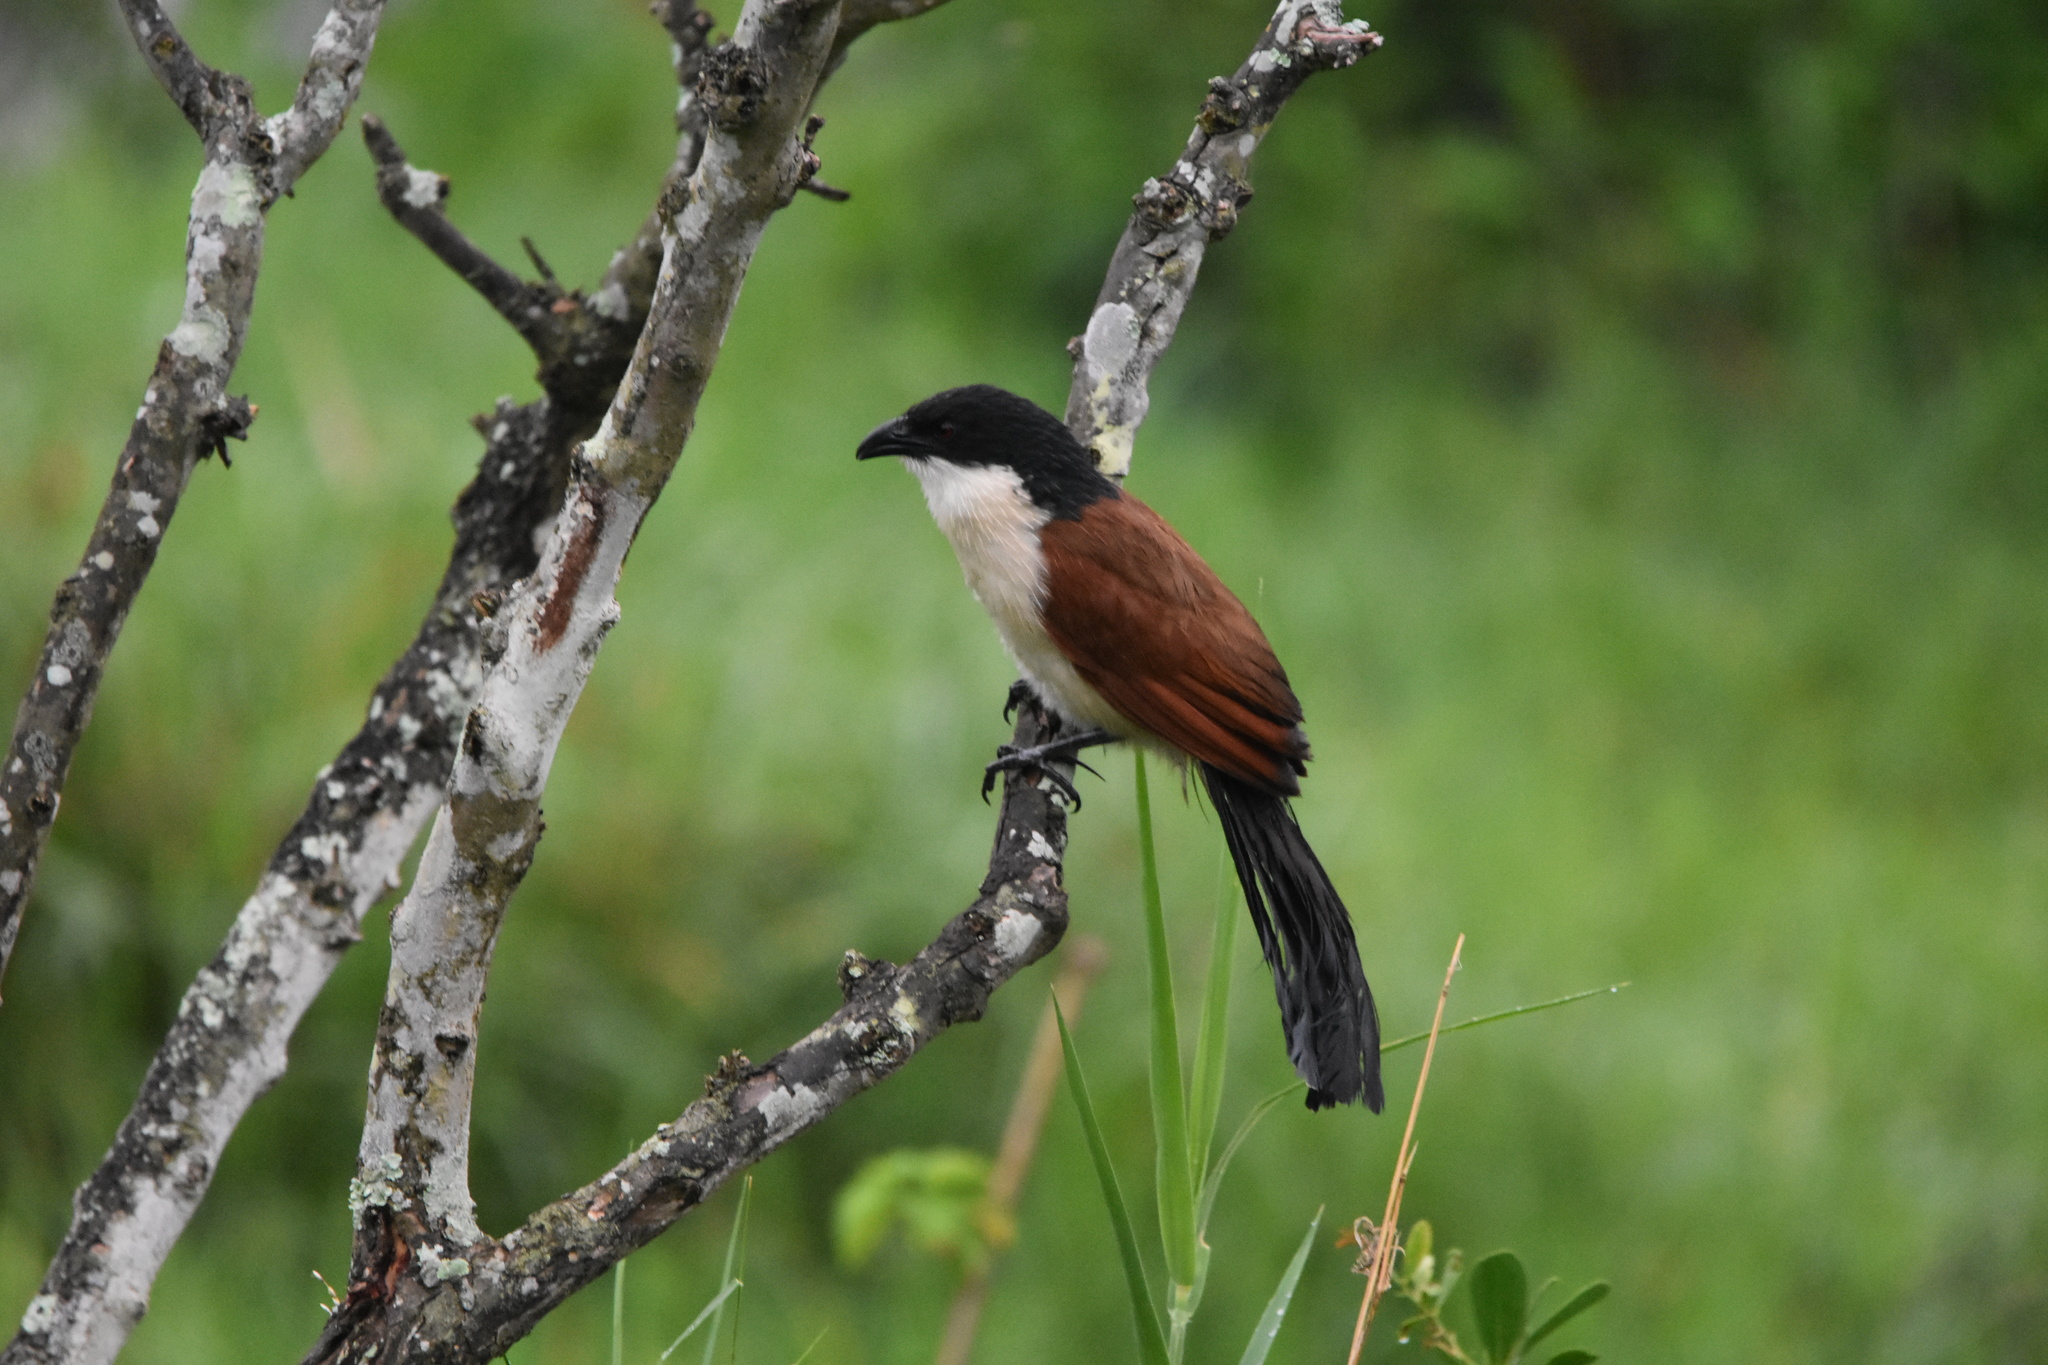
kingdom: Animalia
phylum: Chordata
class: Aves
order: Cuculiformes
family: Cuculidae
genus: Centropus
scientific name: Centropus superciliosus
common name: White-browed coucal
